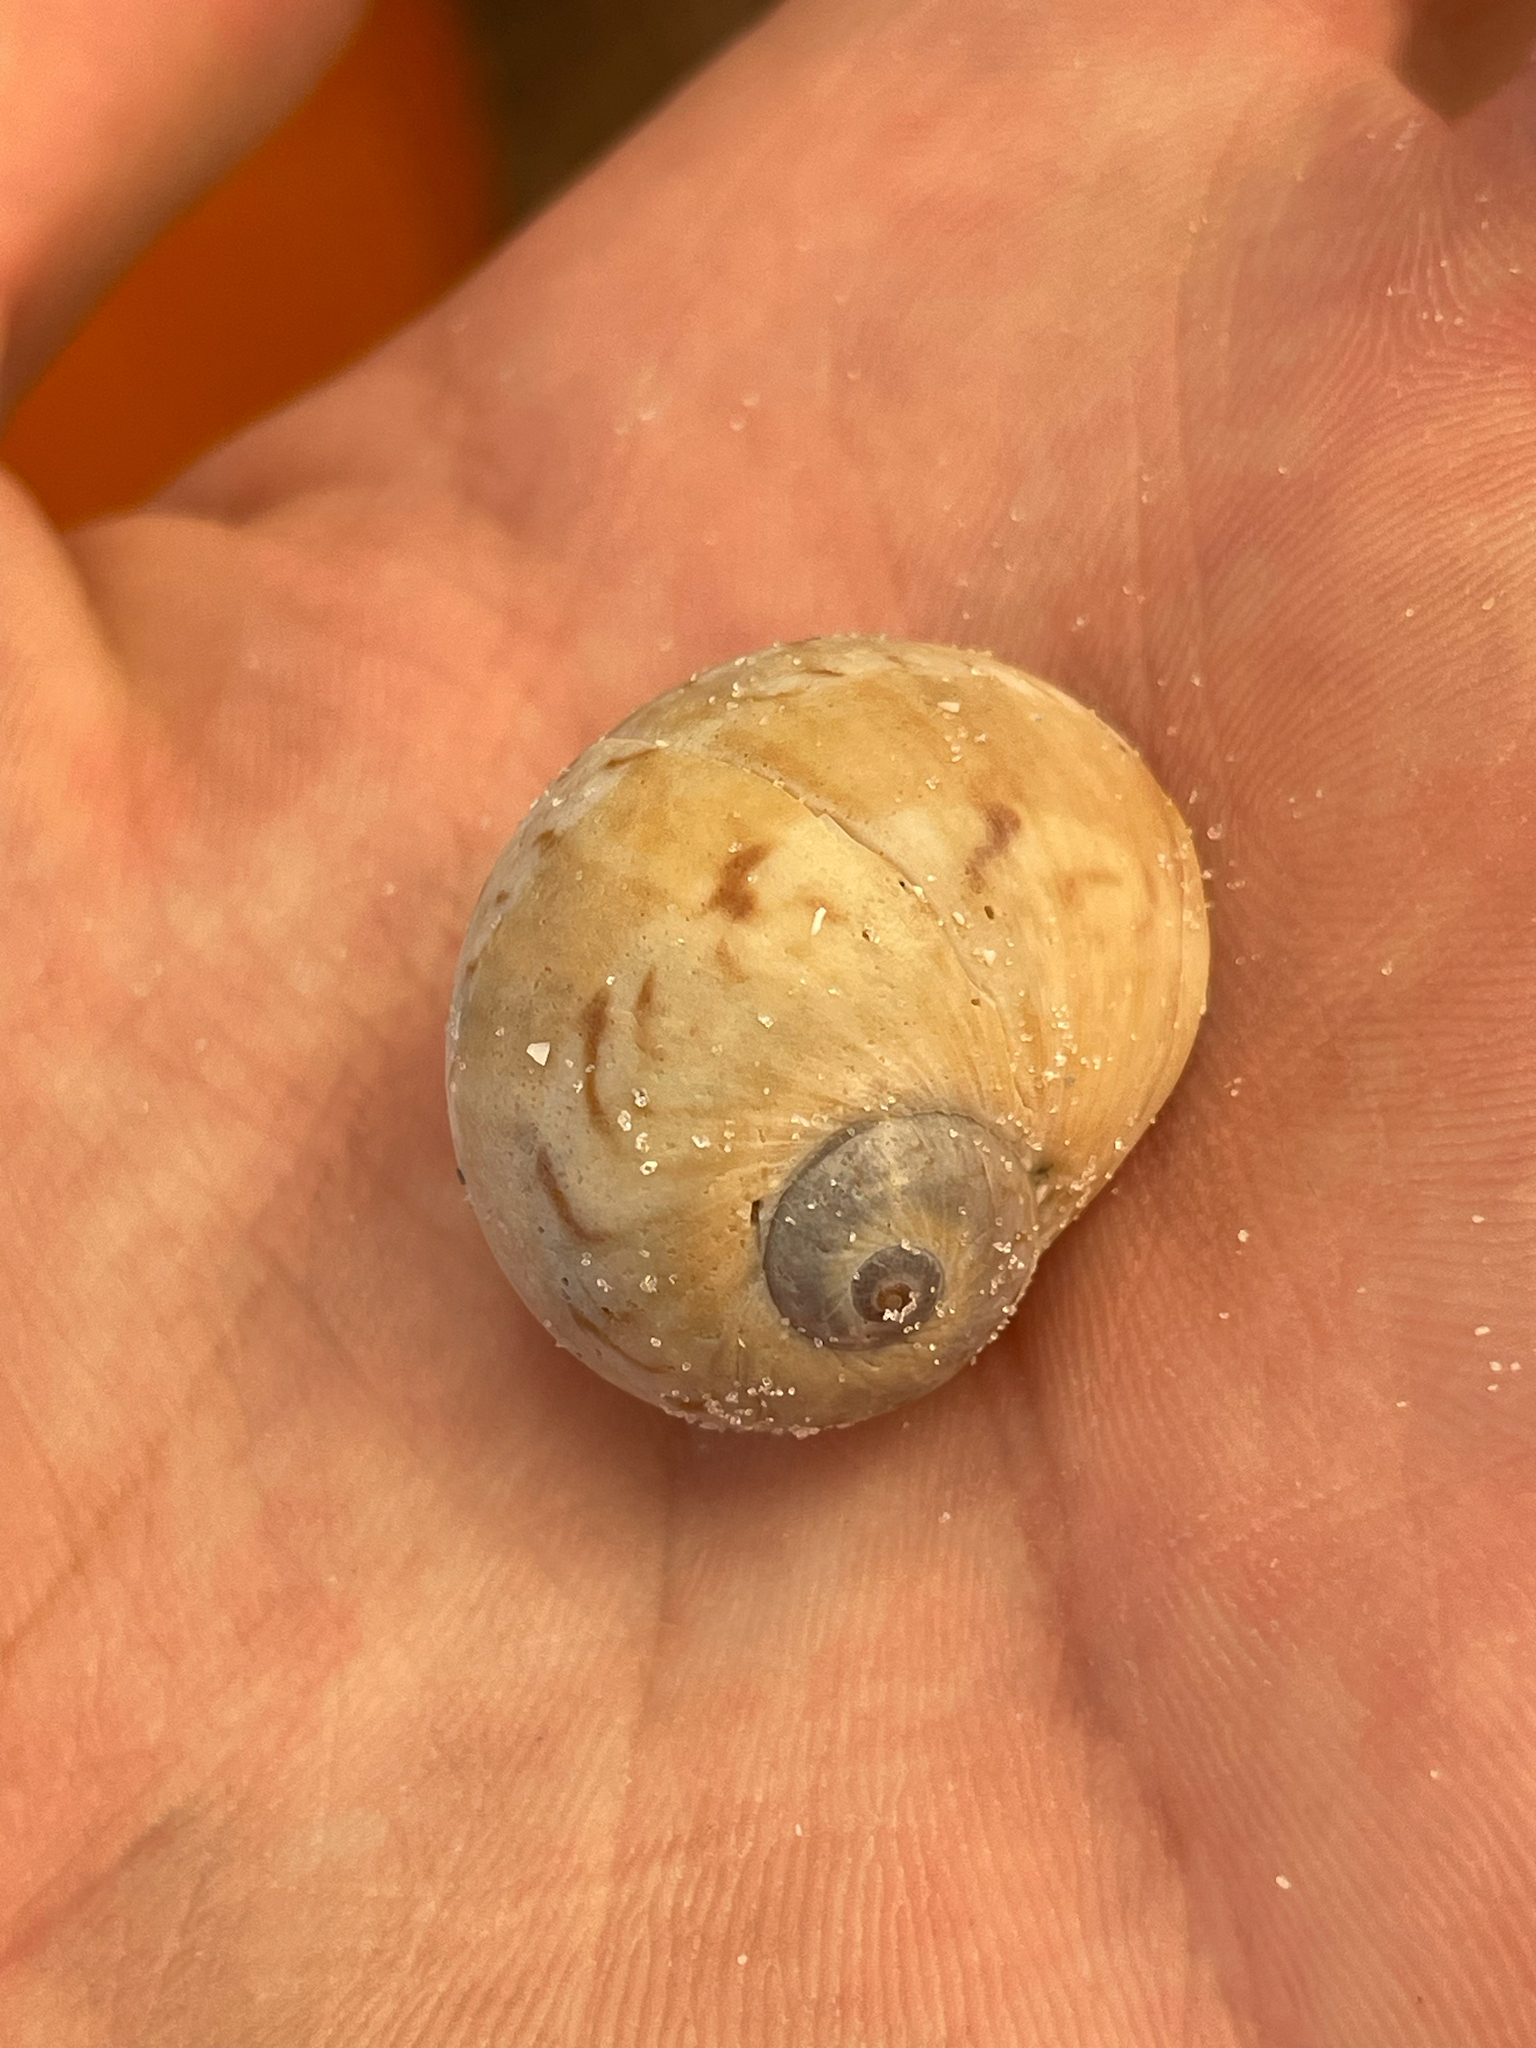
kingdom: Animalia
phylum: Mollusca
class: Gastropoda
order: Littorinimorpha
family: Naticidae
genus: Naticarius
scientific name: Naticarius canrena
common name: Colorful moonsnail
